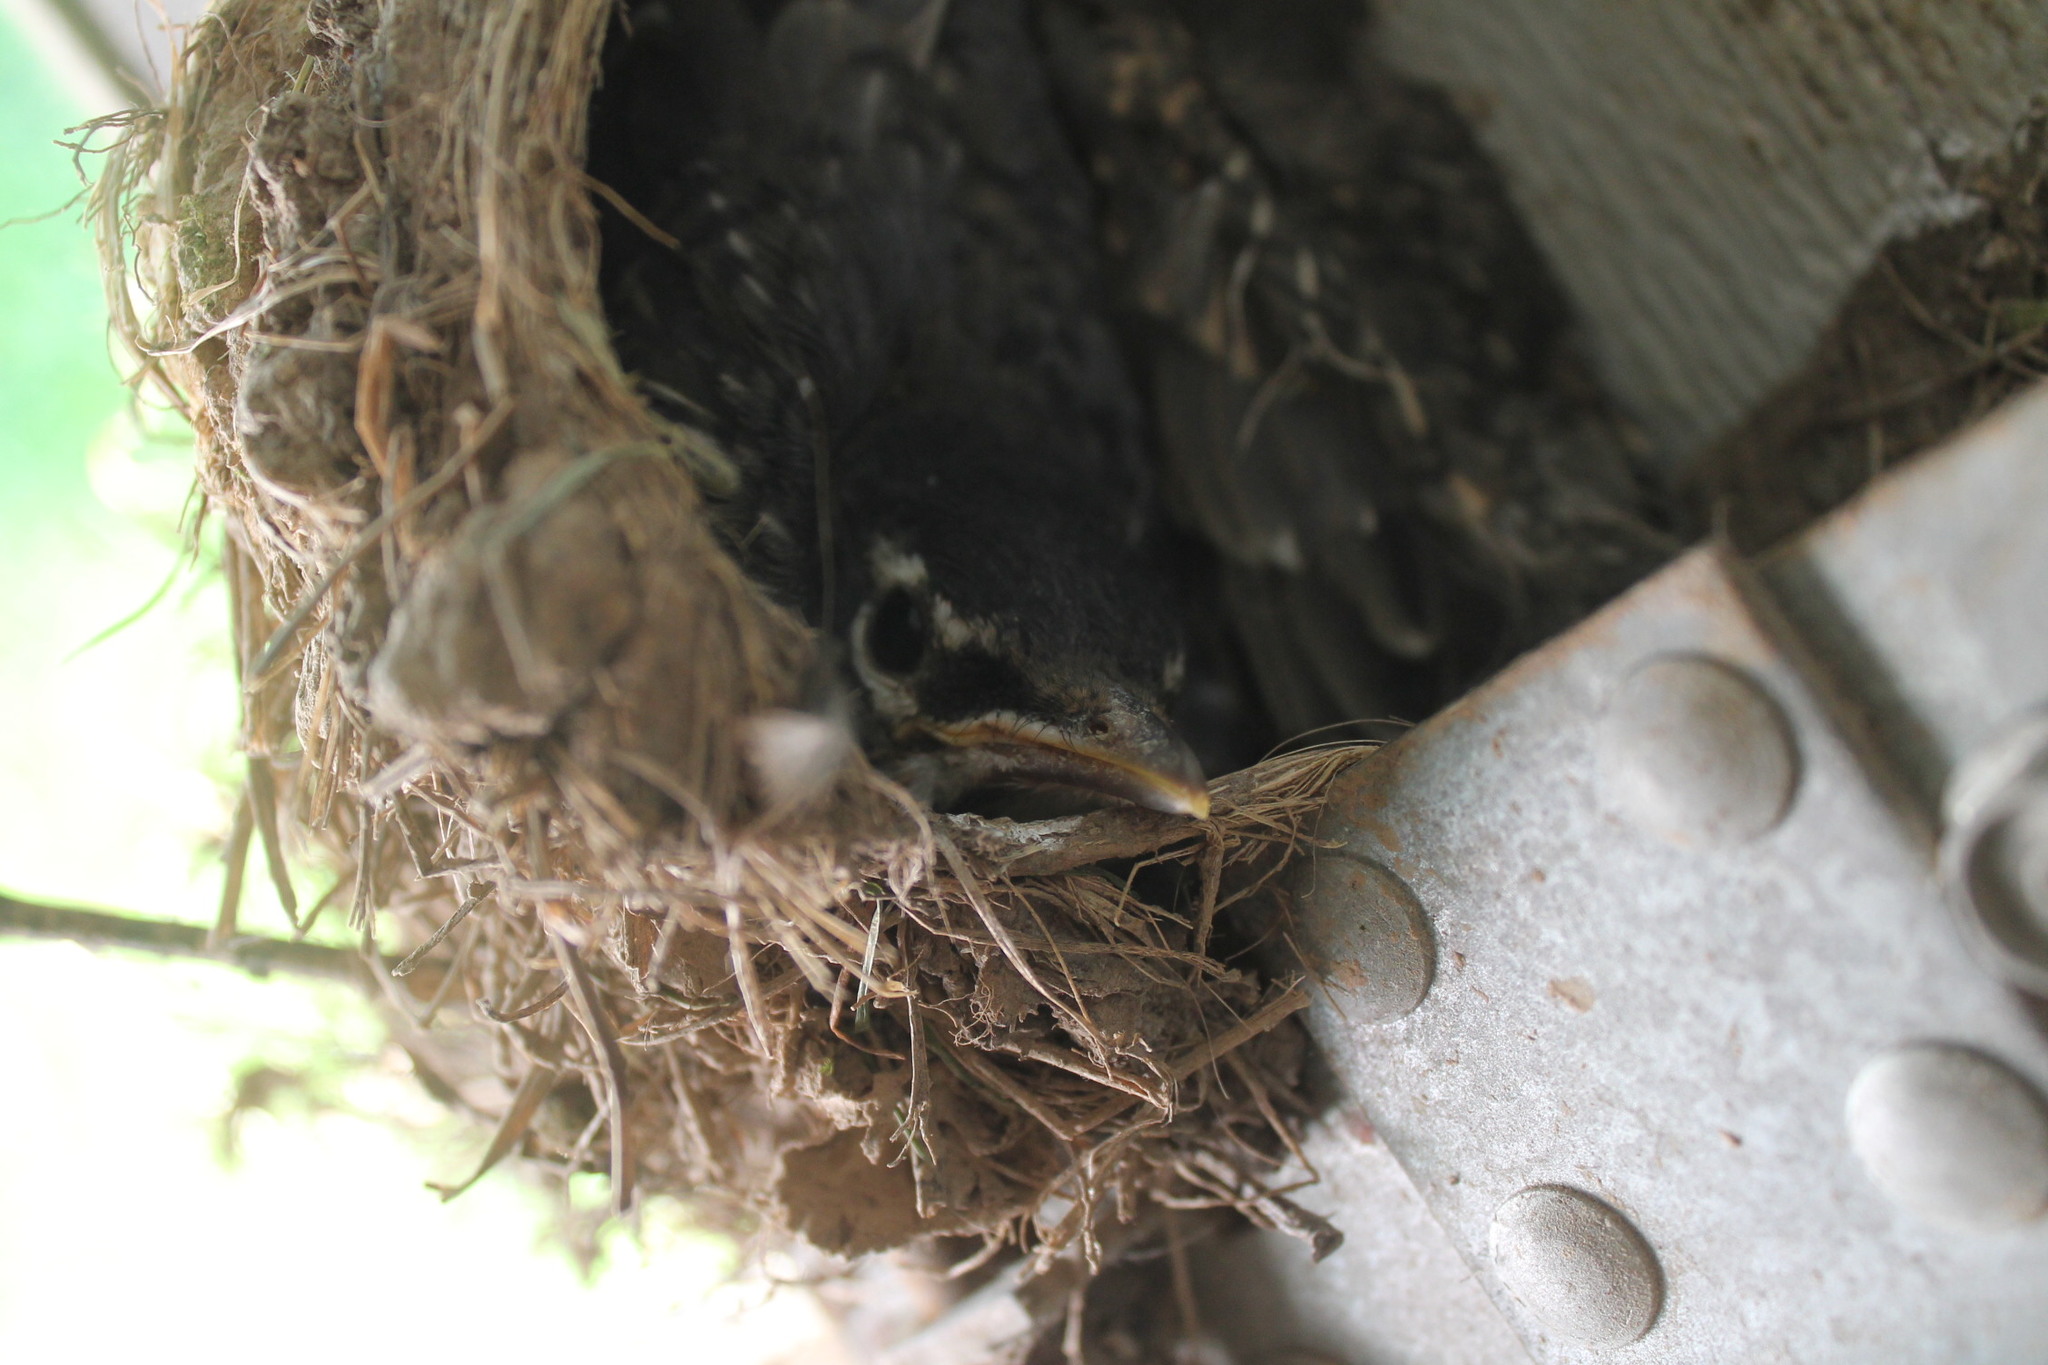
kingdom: Animalia
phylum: Chordata
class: Aves
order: Passeriformes
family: Turdidae
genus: Turdus
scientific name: Turdus migratorius
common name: American robin
